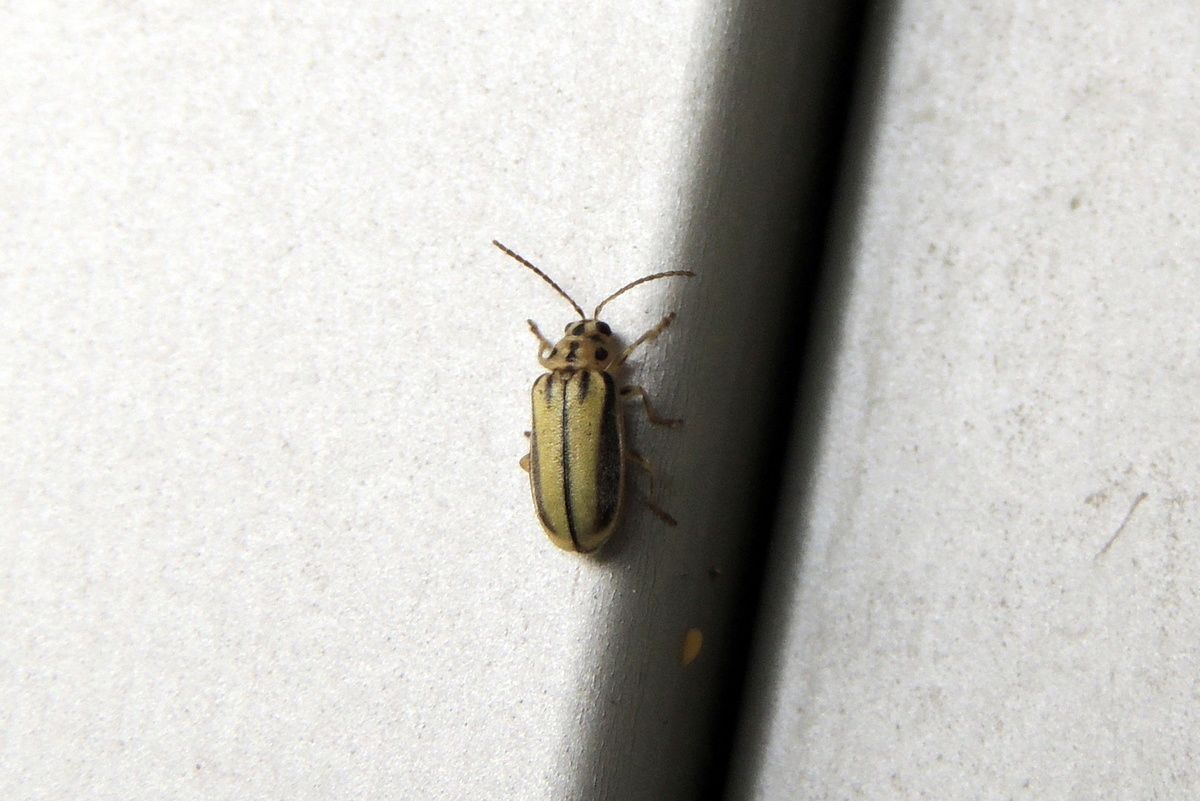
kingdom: Animalia
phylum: Arthropoda
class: Insecta
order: Coleoptera
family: Chrysomelidae
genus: Xanthogaleruca
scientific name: Xanthogaleruca luteola
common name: Elm leaf beetle
